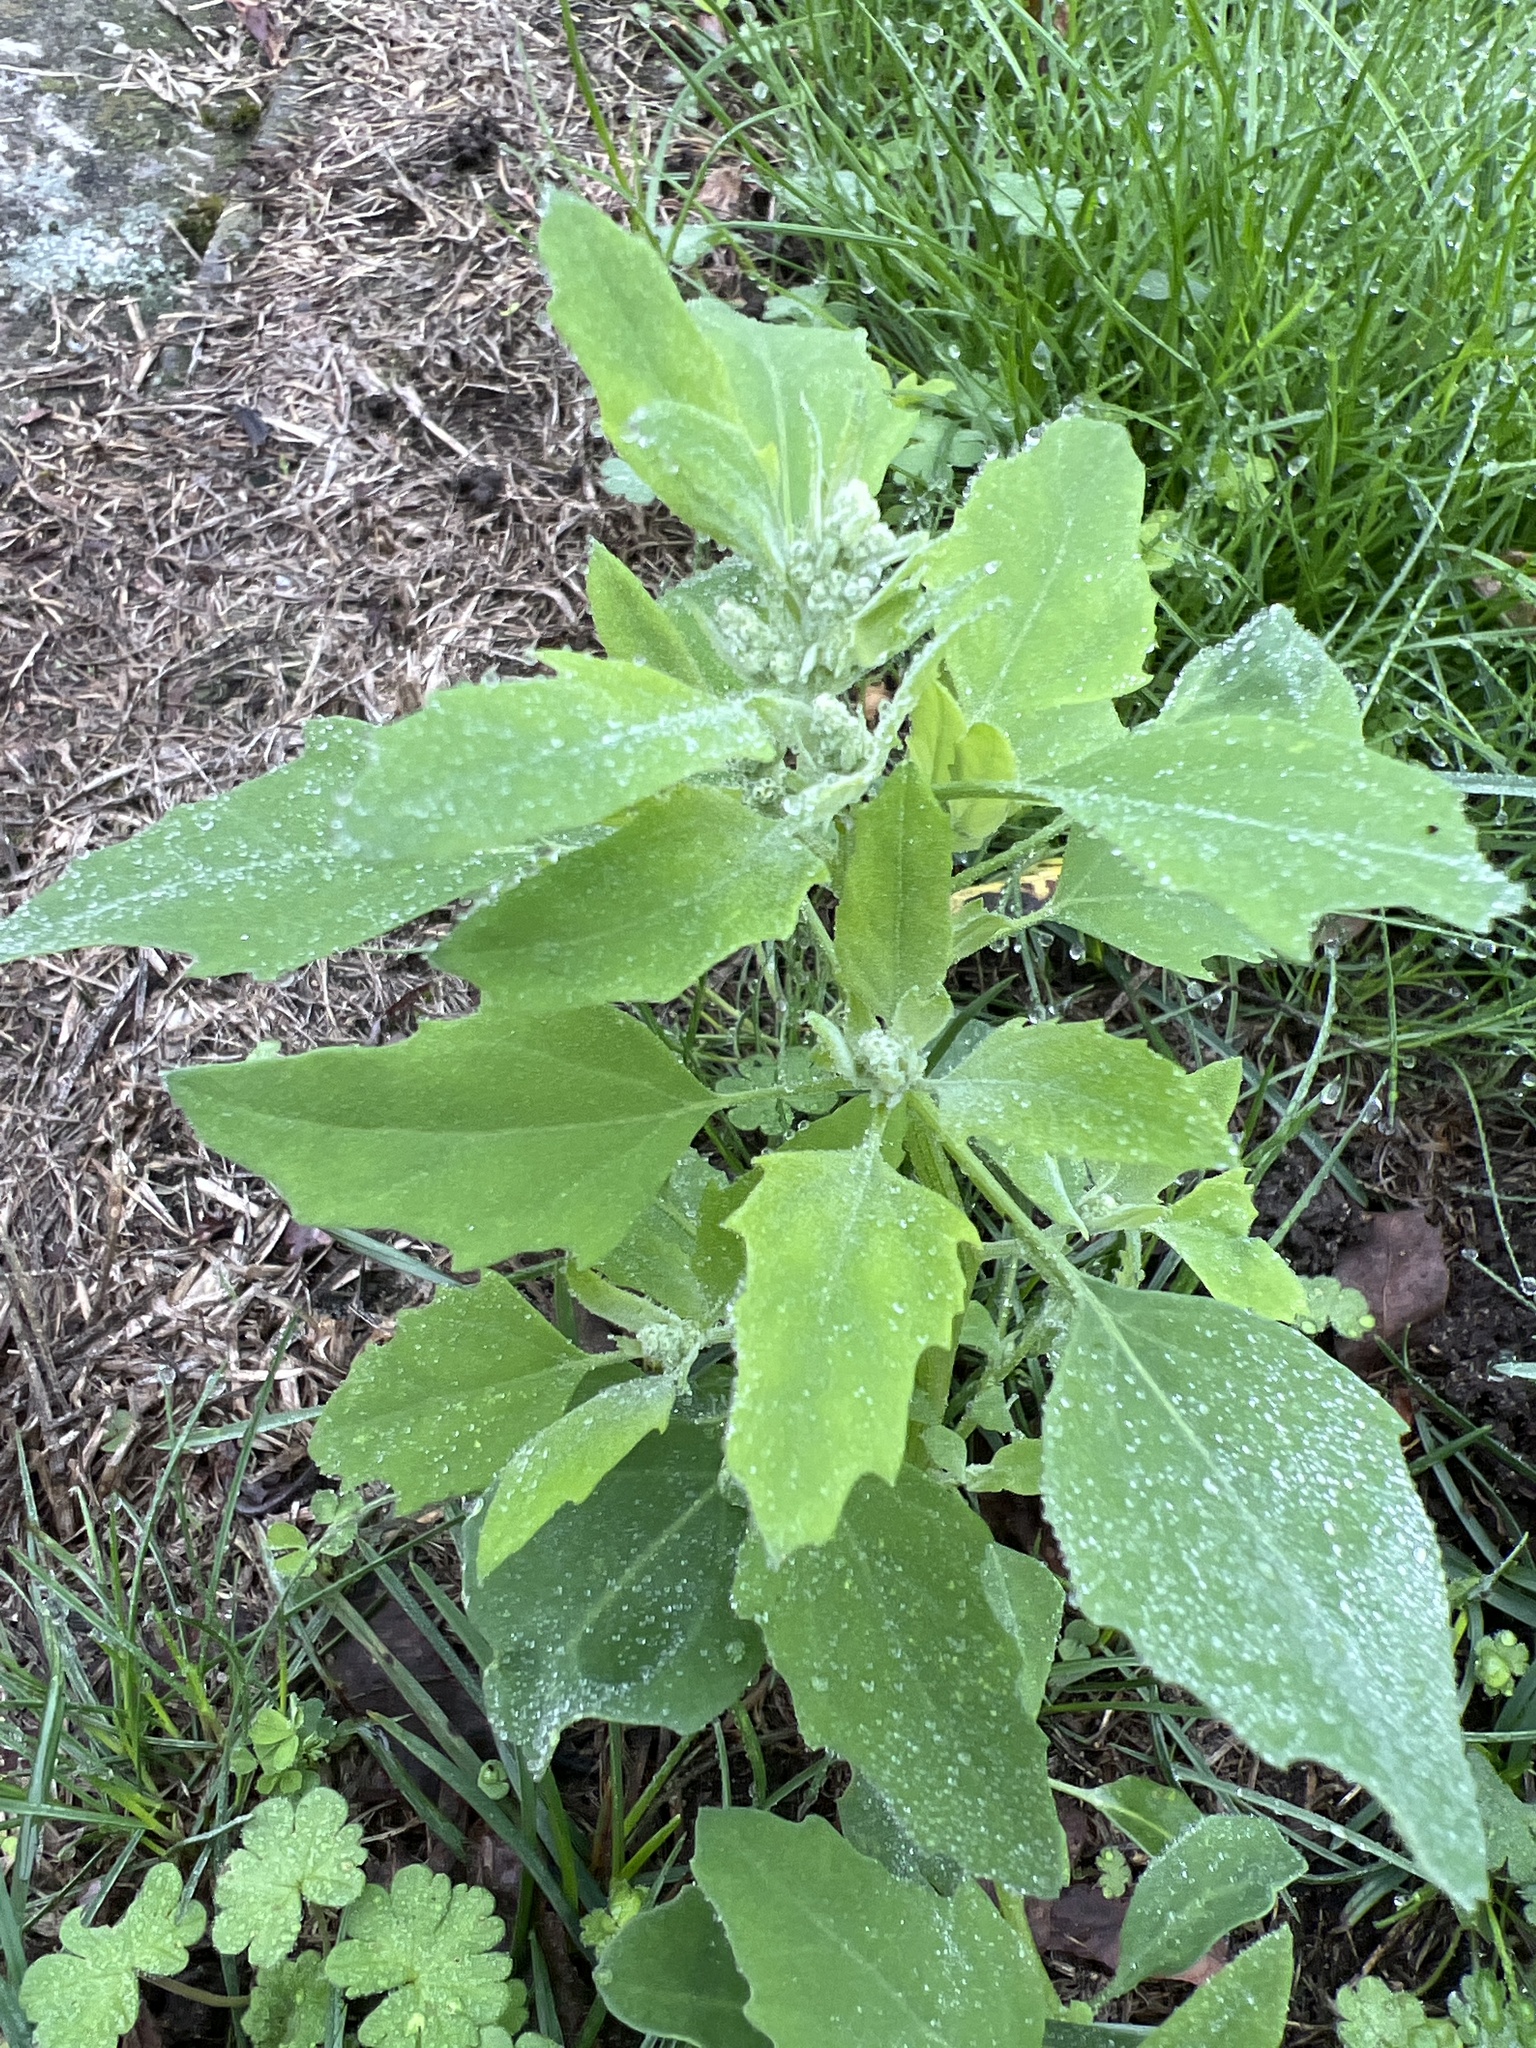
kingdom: Plantae
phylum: Tracheophyta
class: Magnoliopsida
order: Caryophyllales
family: Amaranthaceae
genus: Chenopodium
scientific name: Chenopodium album
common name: Fat-hen
